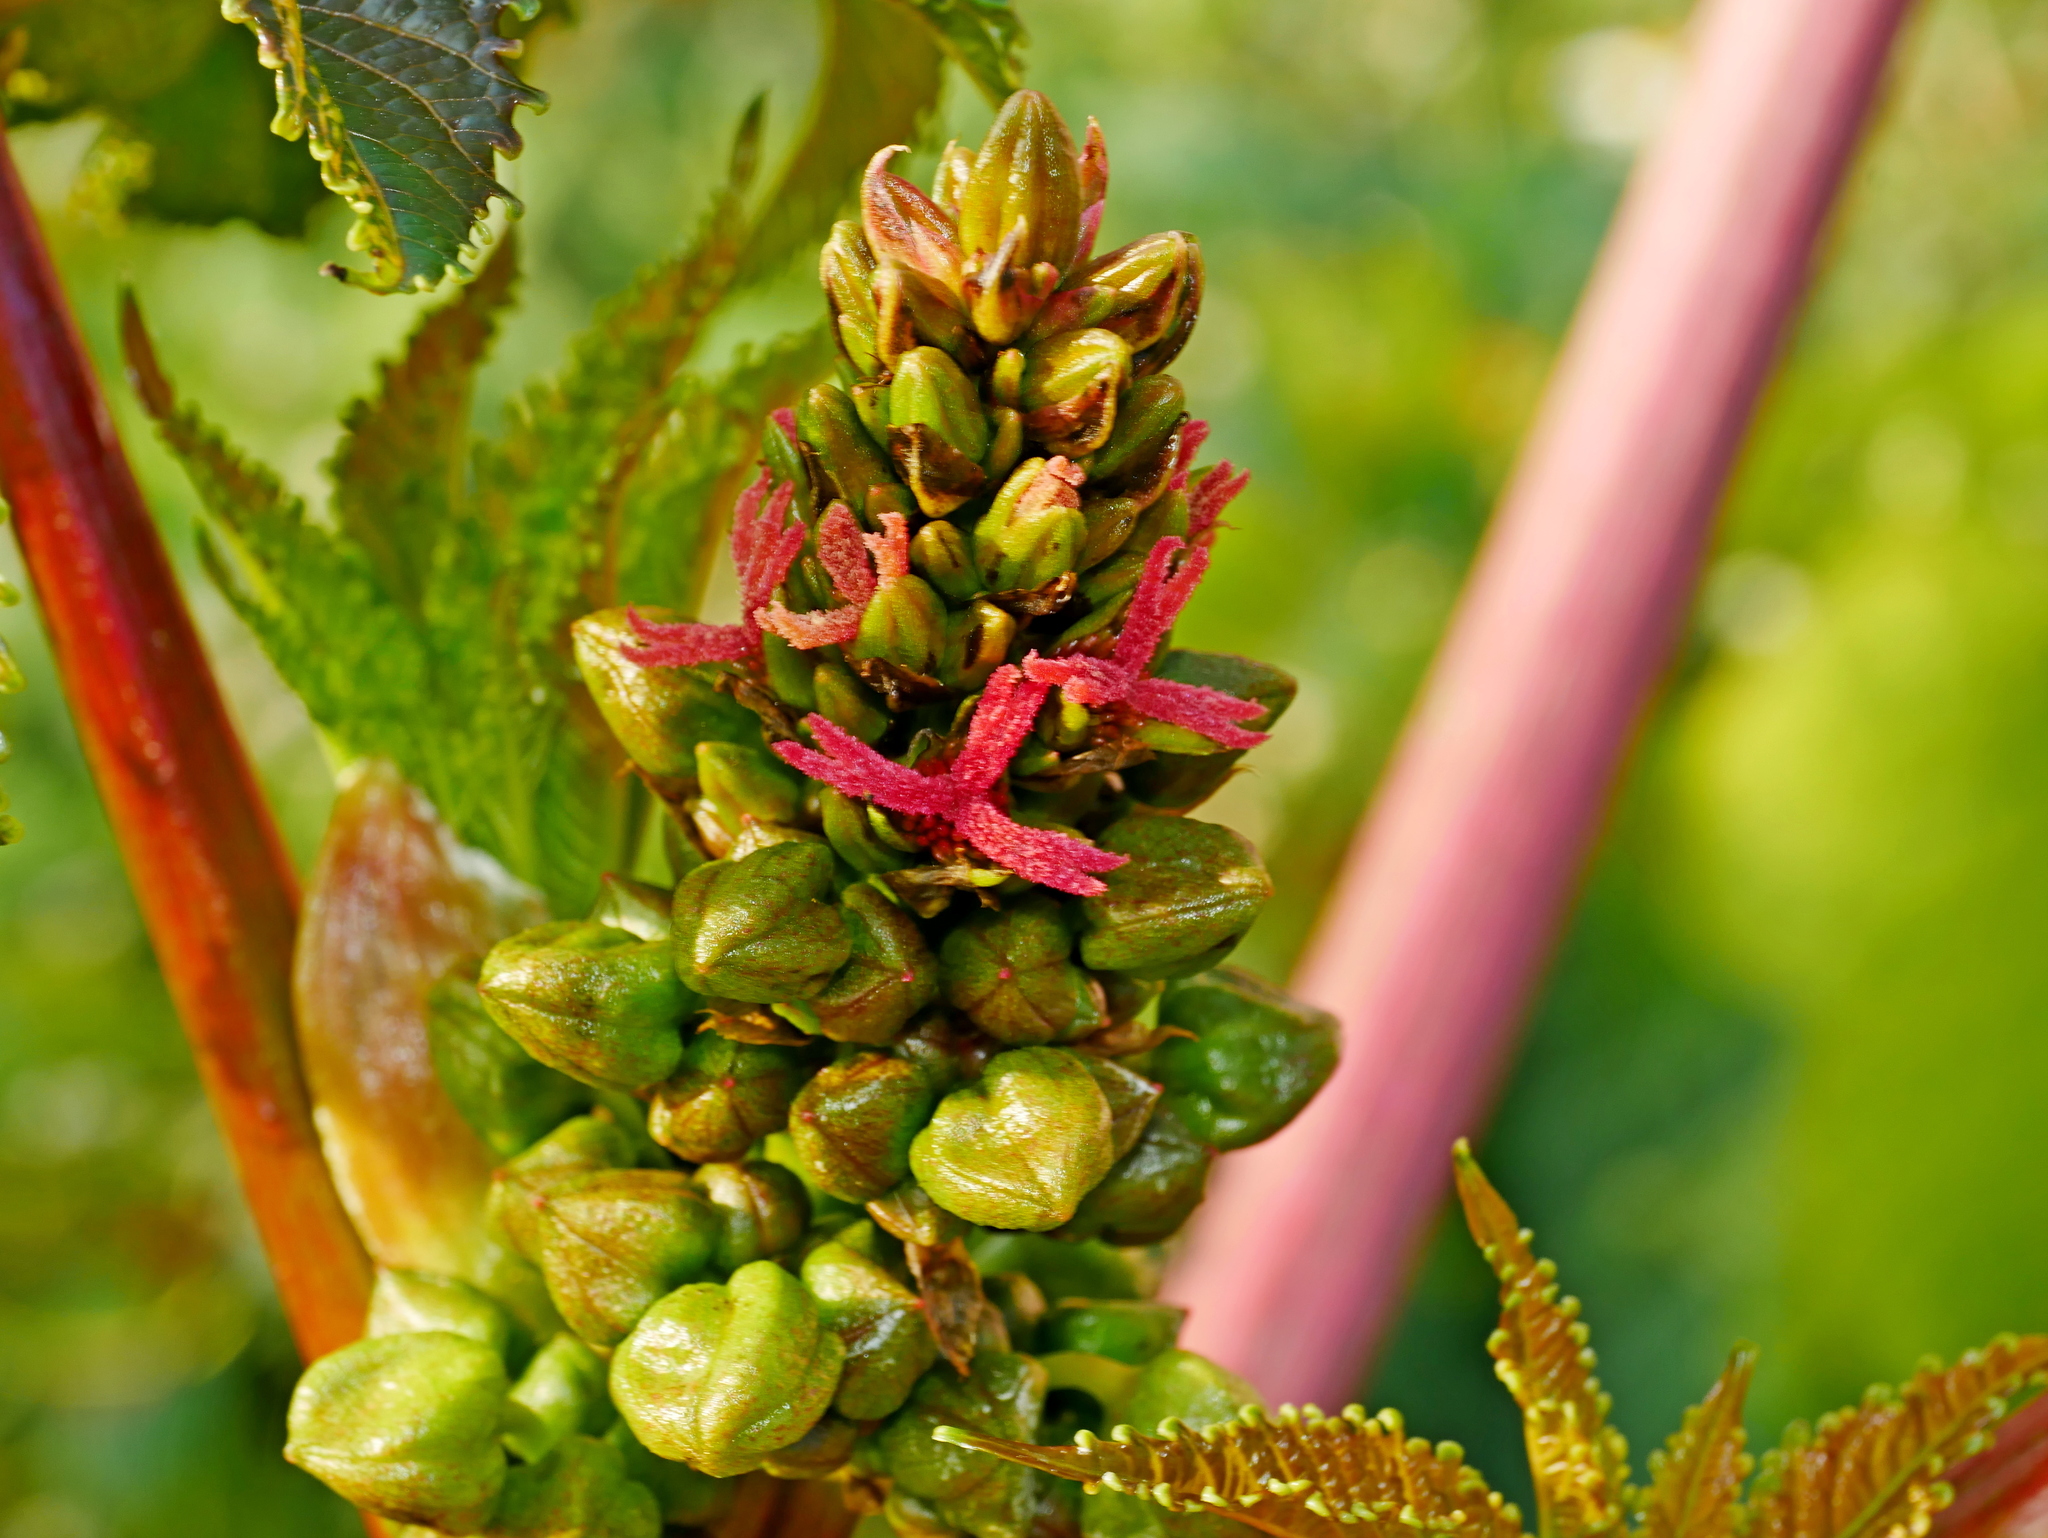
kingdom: Plantae
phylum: Tracheophyta
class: Magnoliopsida
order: Malpighiales
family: Euphorbiaceae
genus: Ricinus
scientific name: Ricinus communis
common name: Castor-oil-plant
